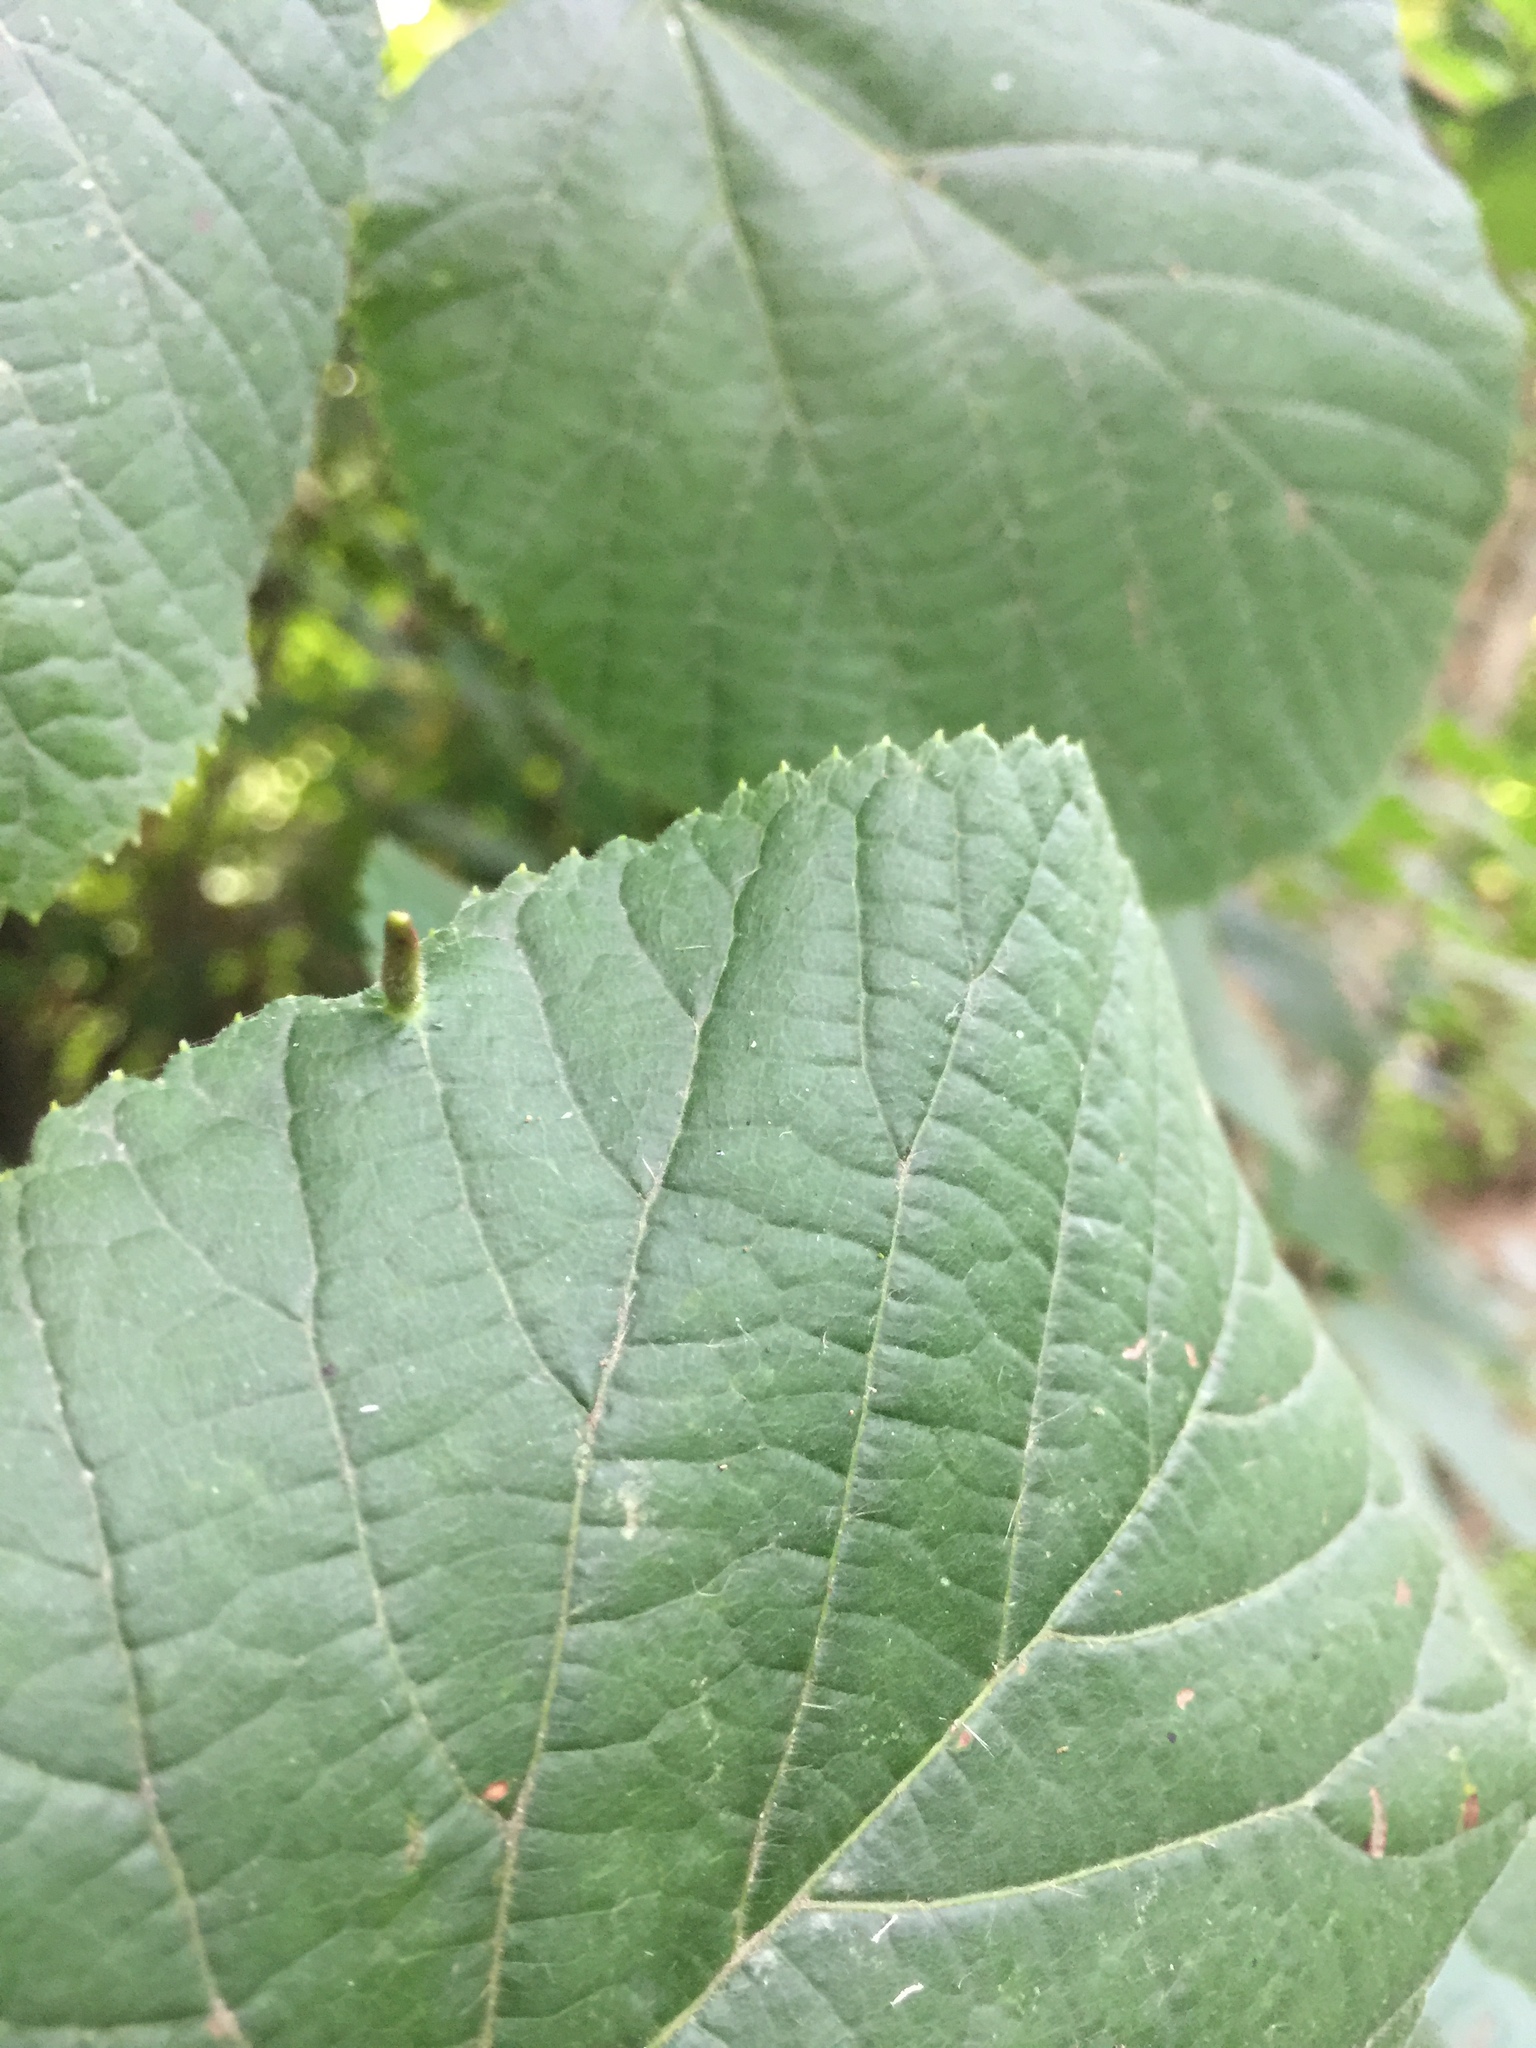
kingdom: Animalia
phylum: Arthropoda
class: Arachnida
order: Trombidiformes
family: Eriophyidae
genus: Eriophyes
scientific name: Eriophyes tiliae
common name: Red nail gall mite
